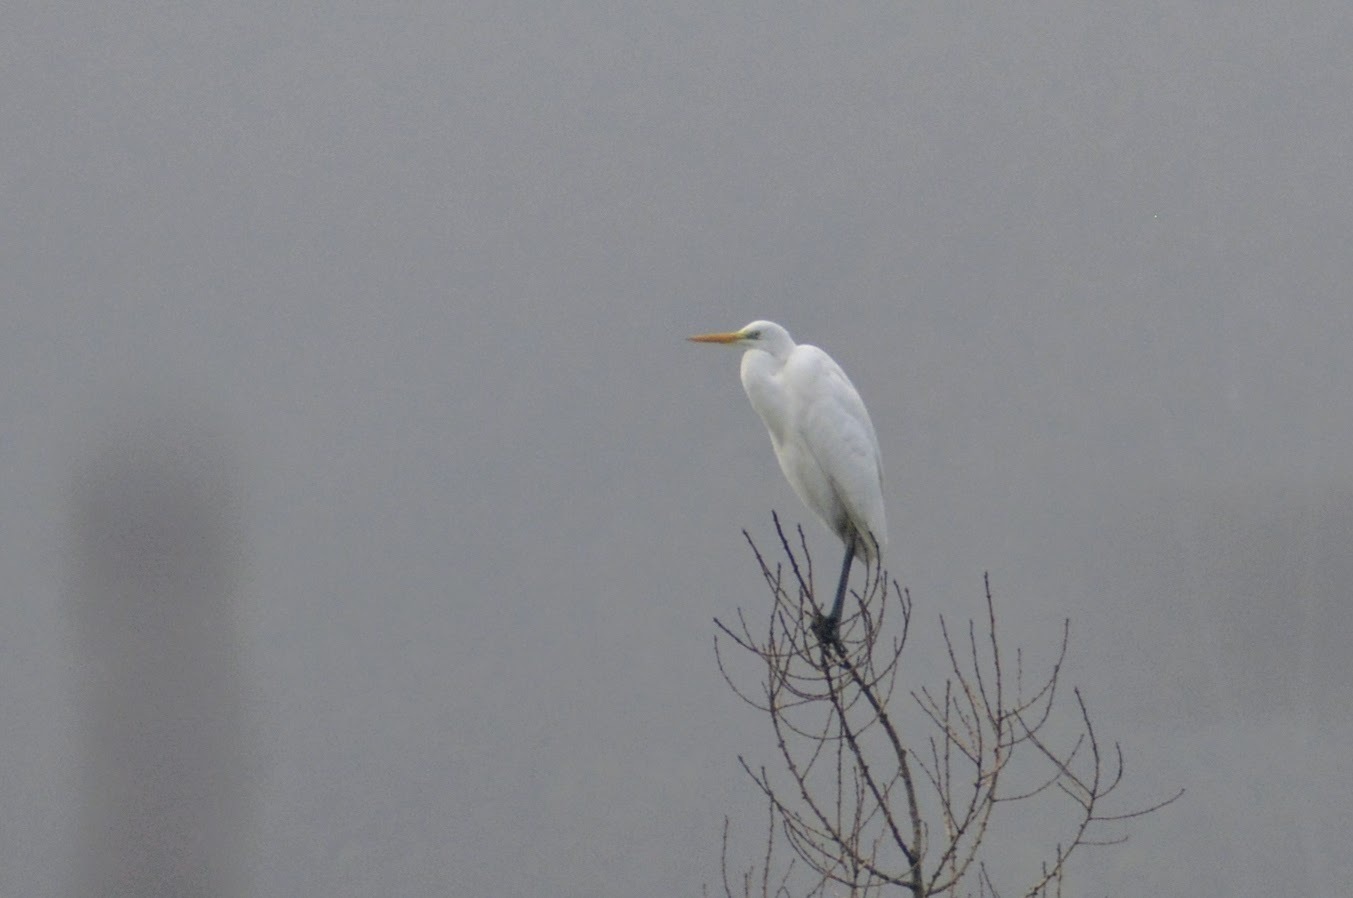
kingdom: Animalia
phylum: Chordata
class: Aves
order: Pelecaniformes
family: Ardeidae
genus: Ardea
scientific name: Ardea alba
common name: Great egret
